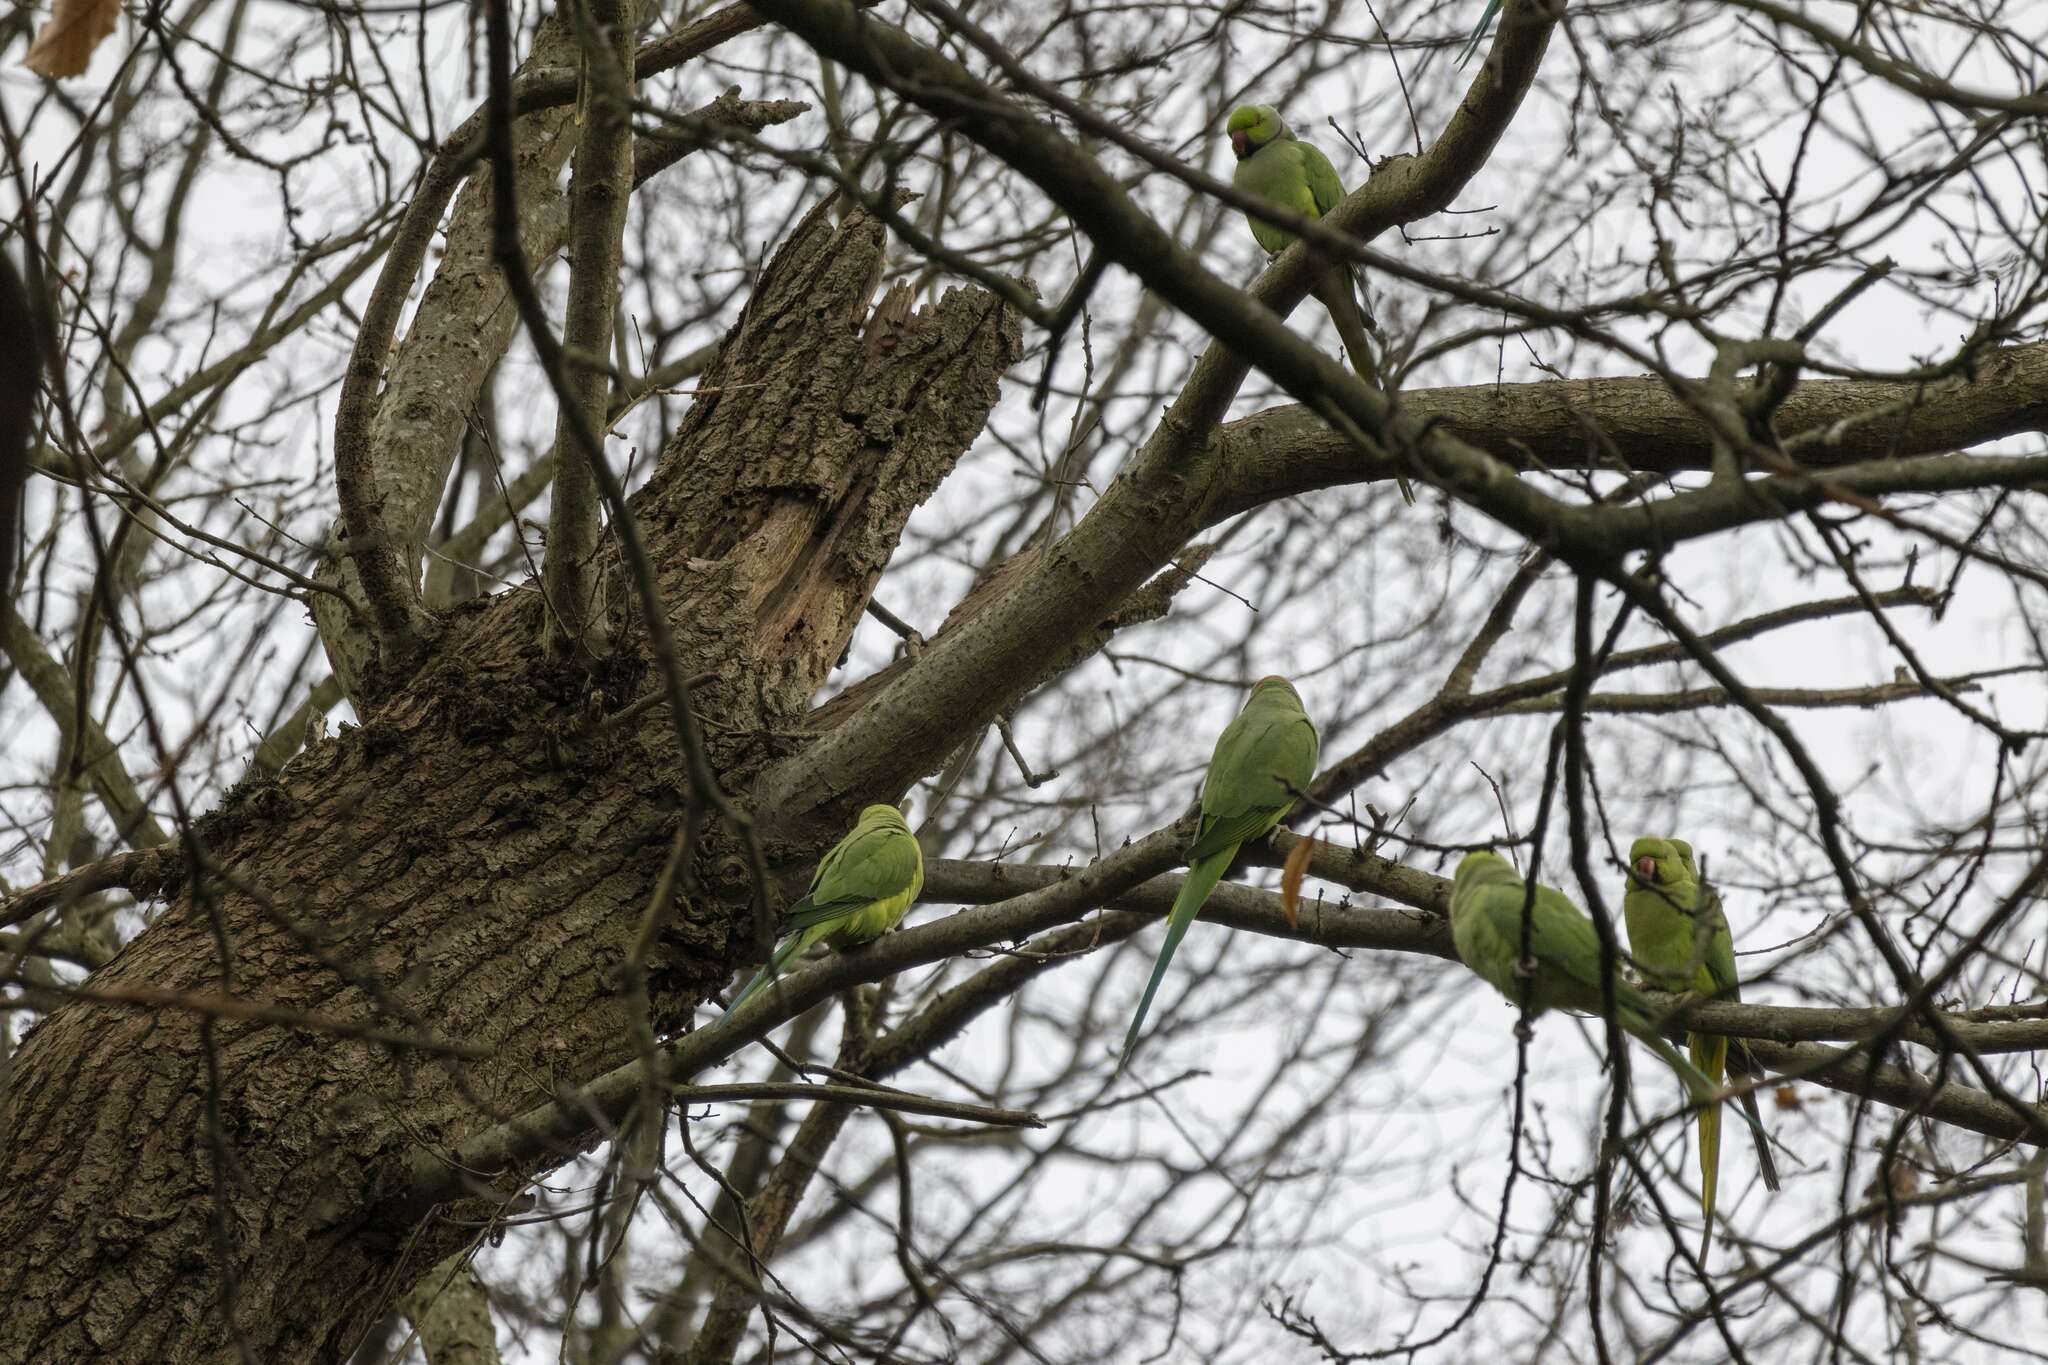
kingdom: Animalia
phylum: Chordata
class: Aves
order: Psittaciformes
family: Psittacidae
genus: Psittacula
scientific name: Psittacula krameri
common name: Rose-ringed parakeet
